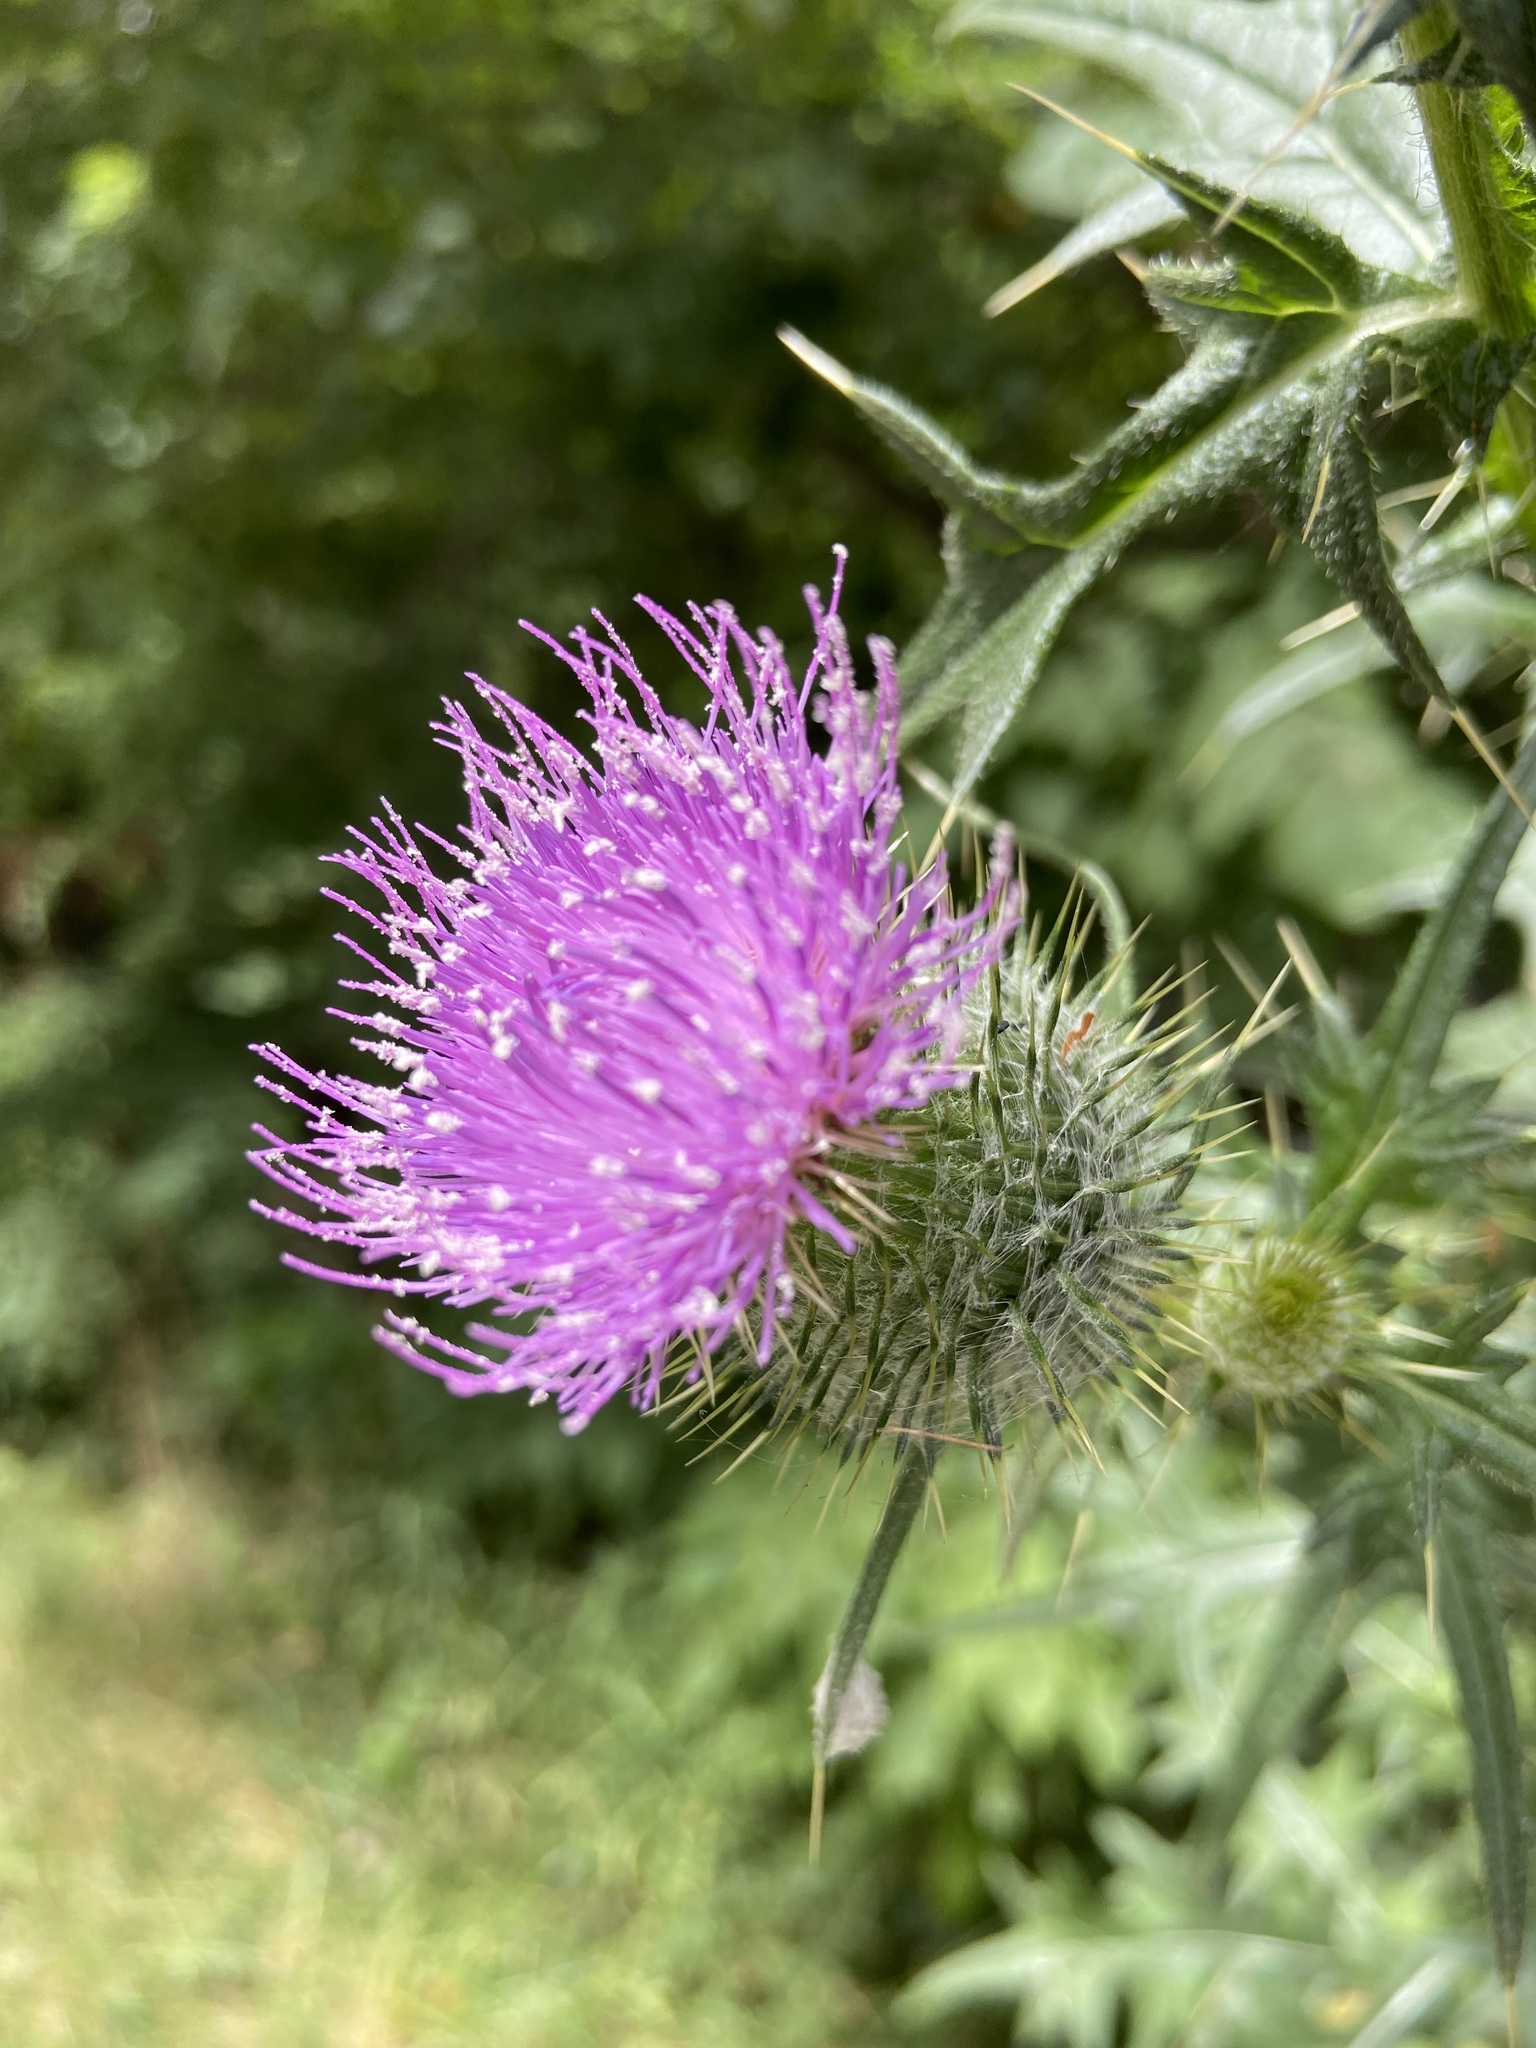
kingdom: Plantae
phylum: Tracheophyta
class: Magnoliopsida
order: Asterales
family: Asteraceae
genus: Cirsium
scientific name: Cirsium vulgare
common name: Bull thistle
